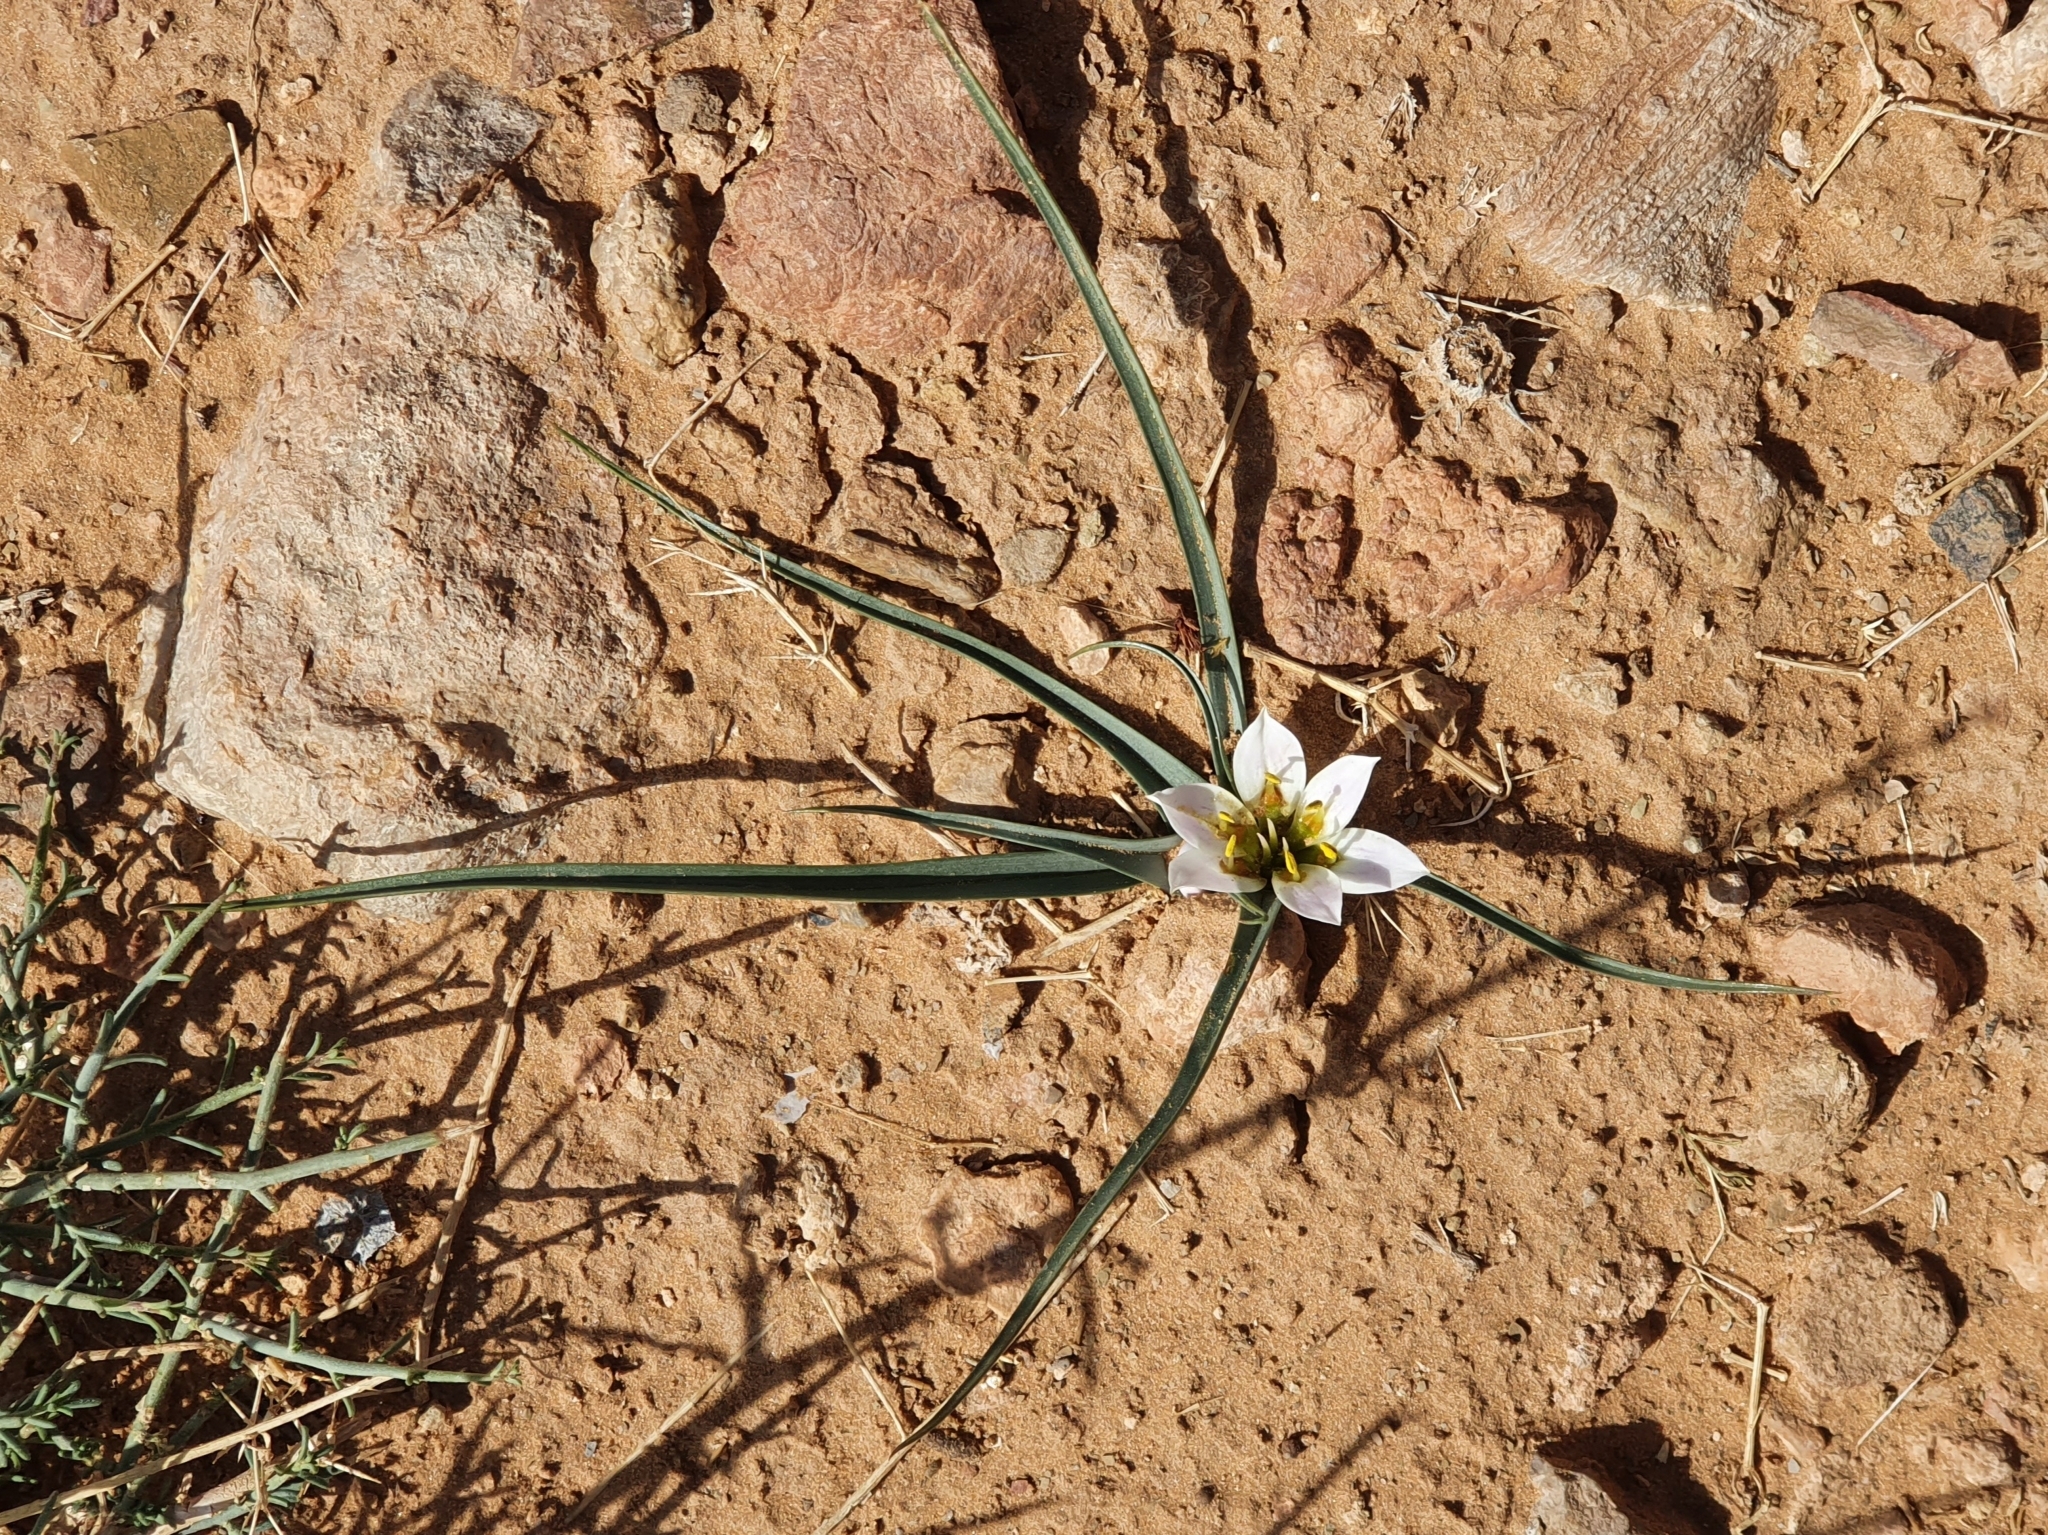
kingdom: Plantae
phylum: Tracheophyta
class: Liliopsida
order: Liliales
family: Colchicaceae
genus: Colchicum
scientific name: Colchicum gramineum
